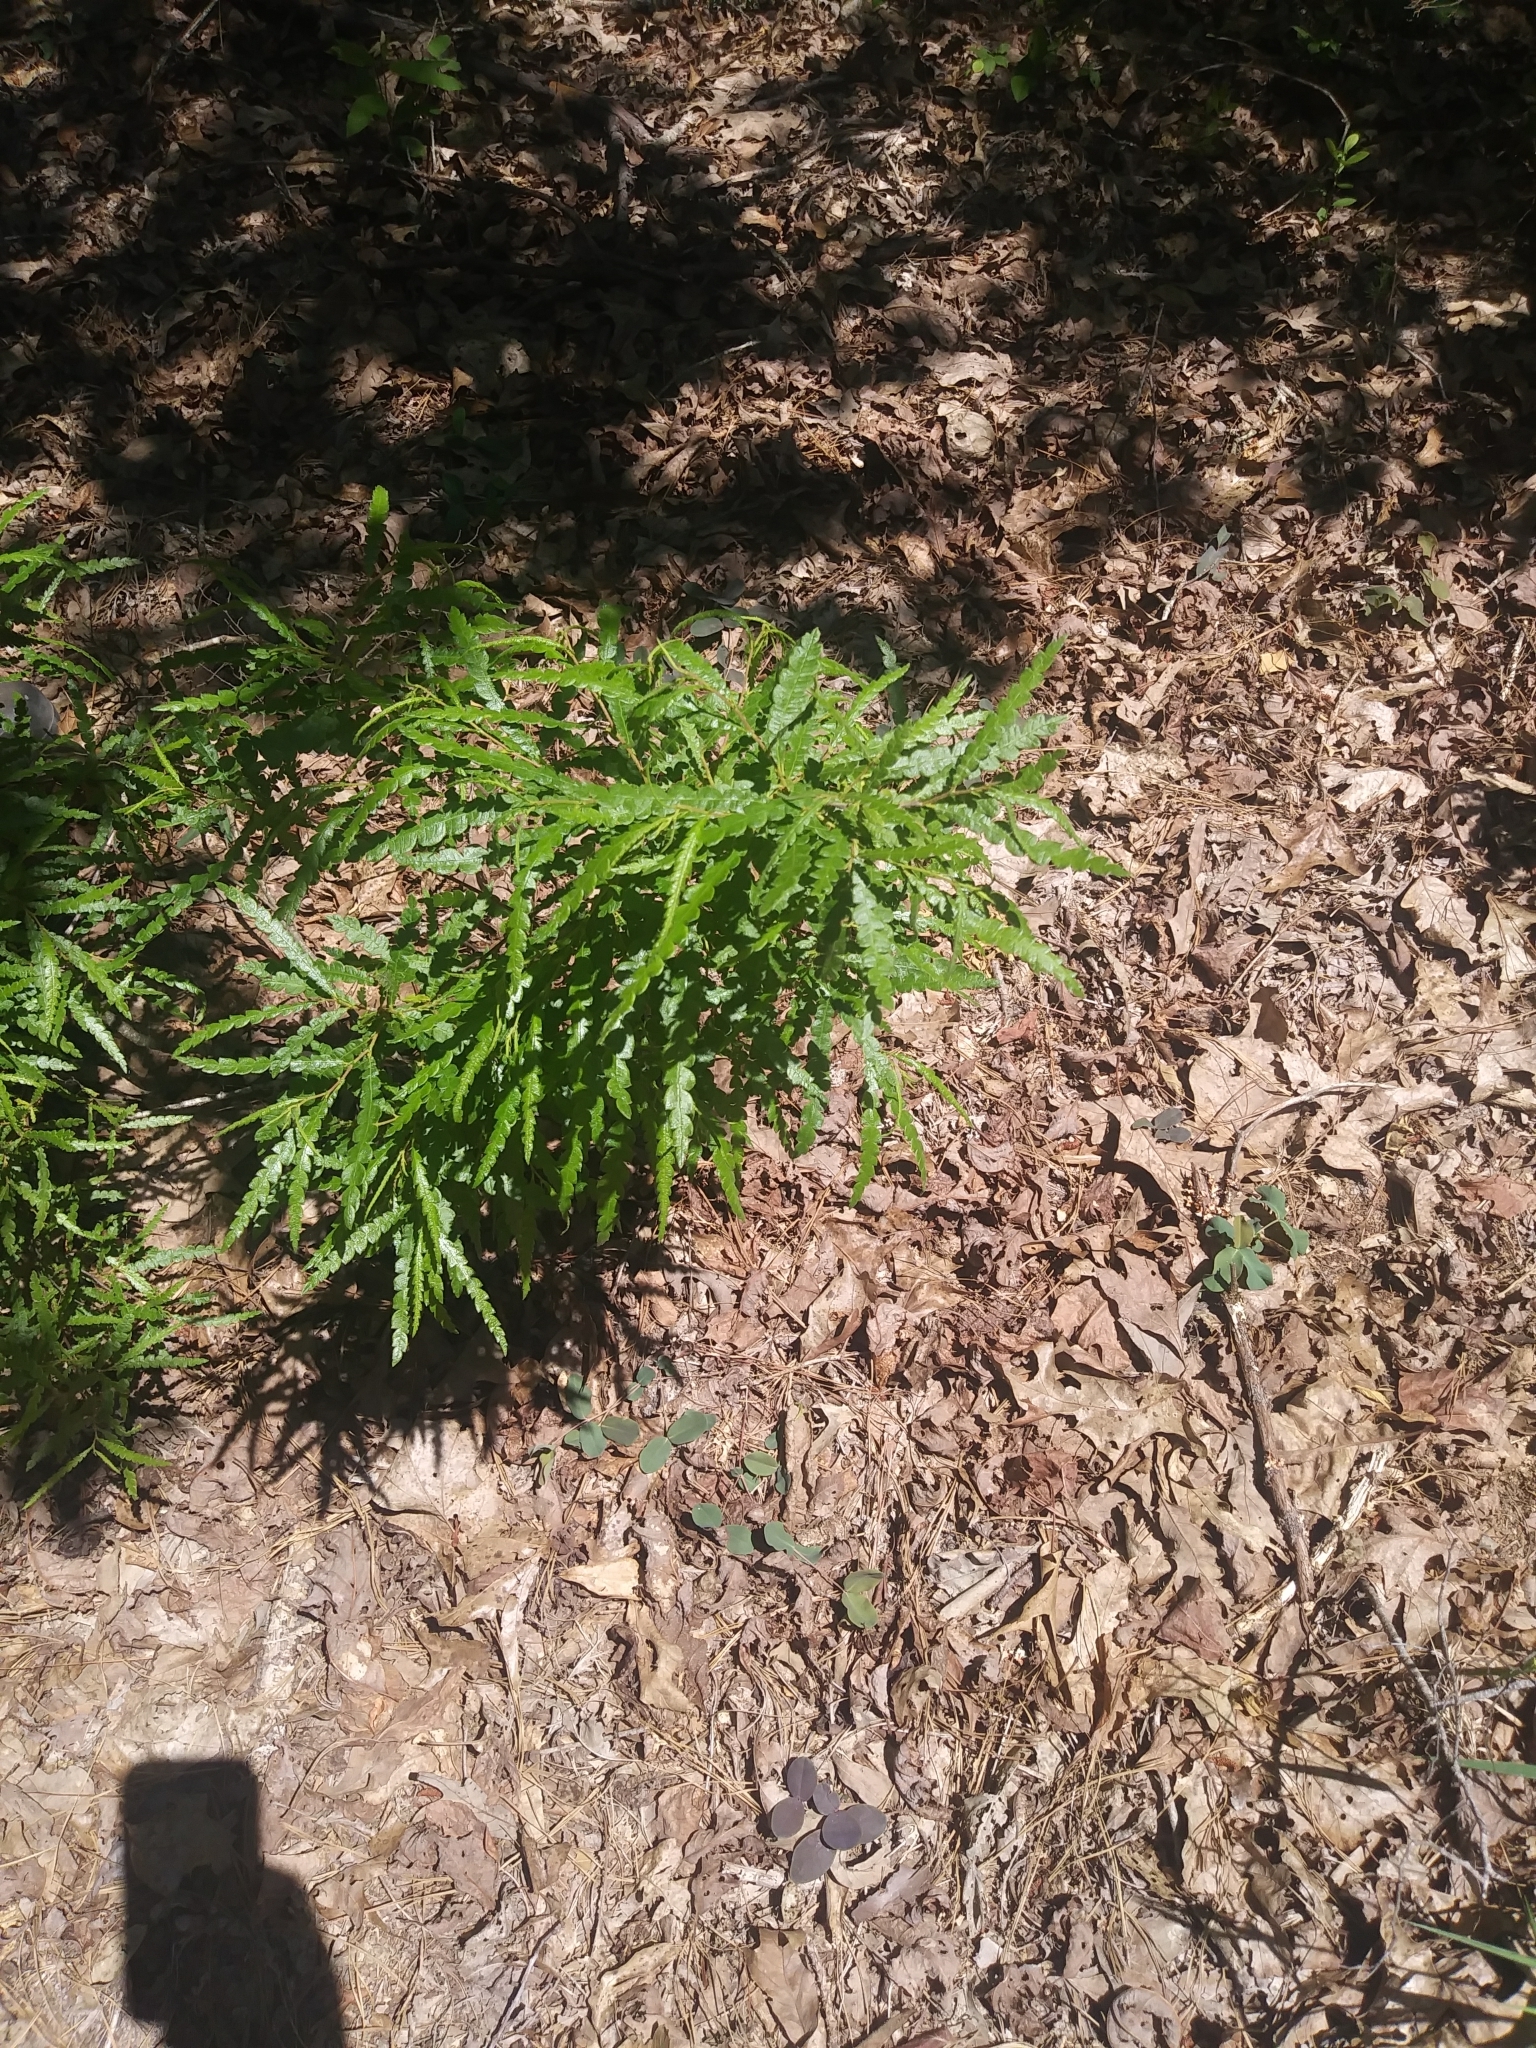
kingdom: Plantae
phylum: Tracheophyta
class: Magnoliopsida
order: Fagales
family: Myricaceae
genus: Comptonia
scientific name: Comptonia peregrina
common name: Sweet-fern
